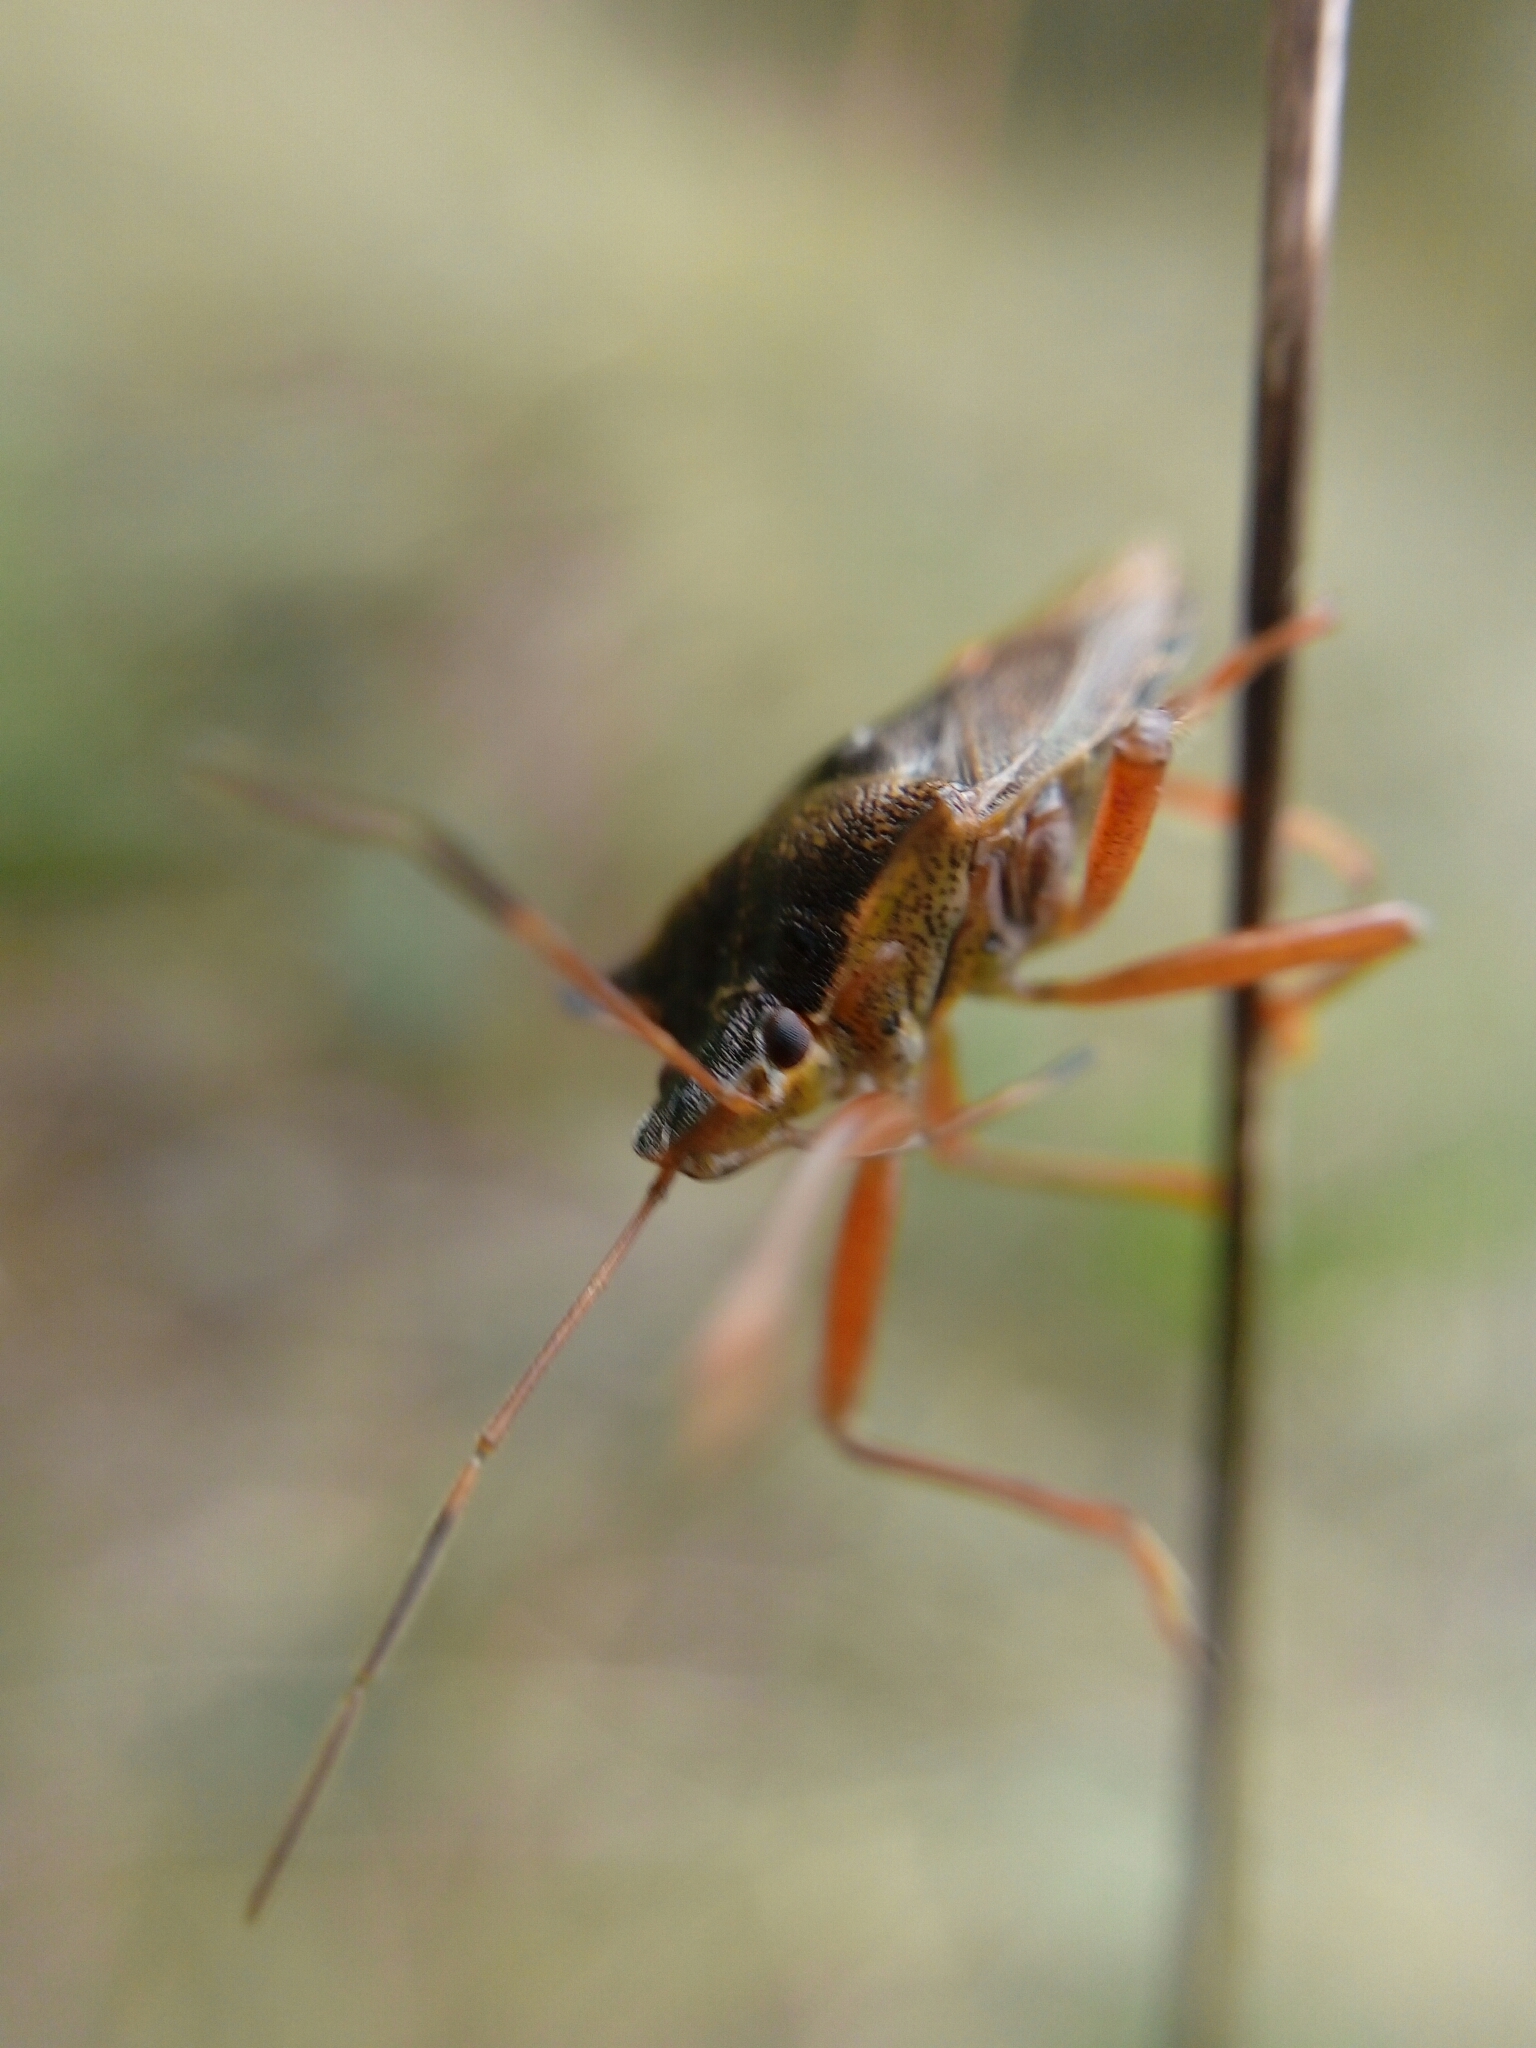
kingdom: Animalia
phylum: Arthropoda
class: Insecta
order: Hemiptera
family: Pentatomidae
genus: Pentatoma
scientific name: Pentatoma rufipes
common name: Forest bug
